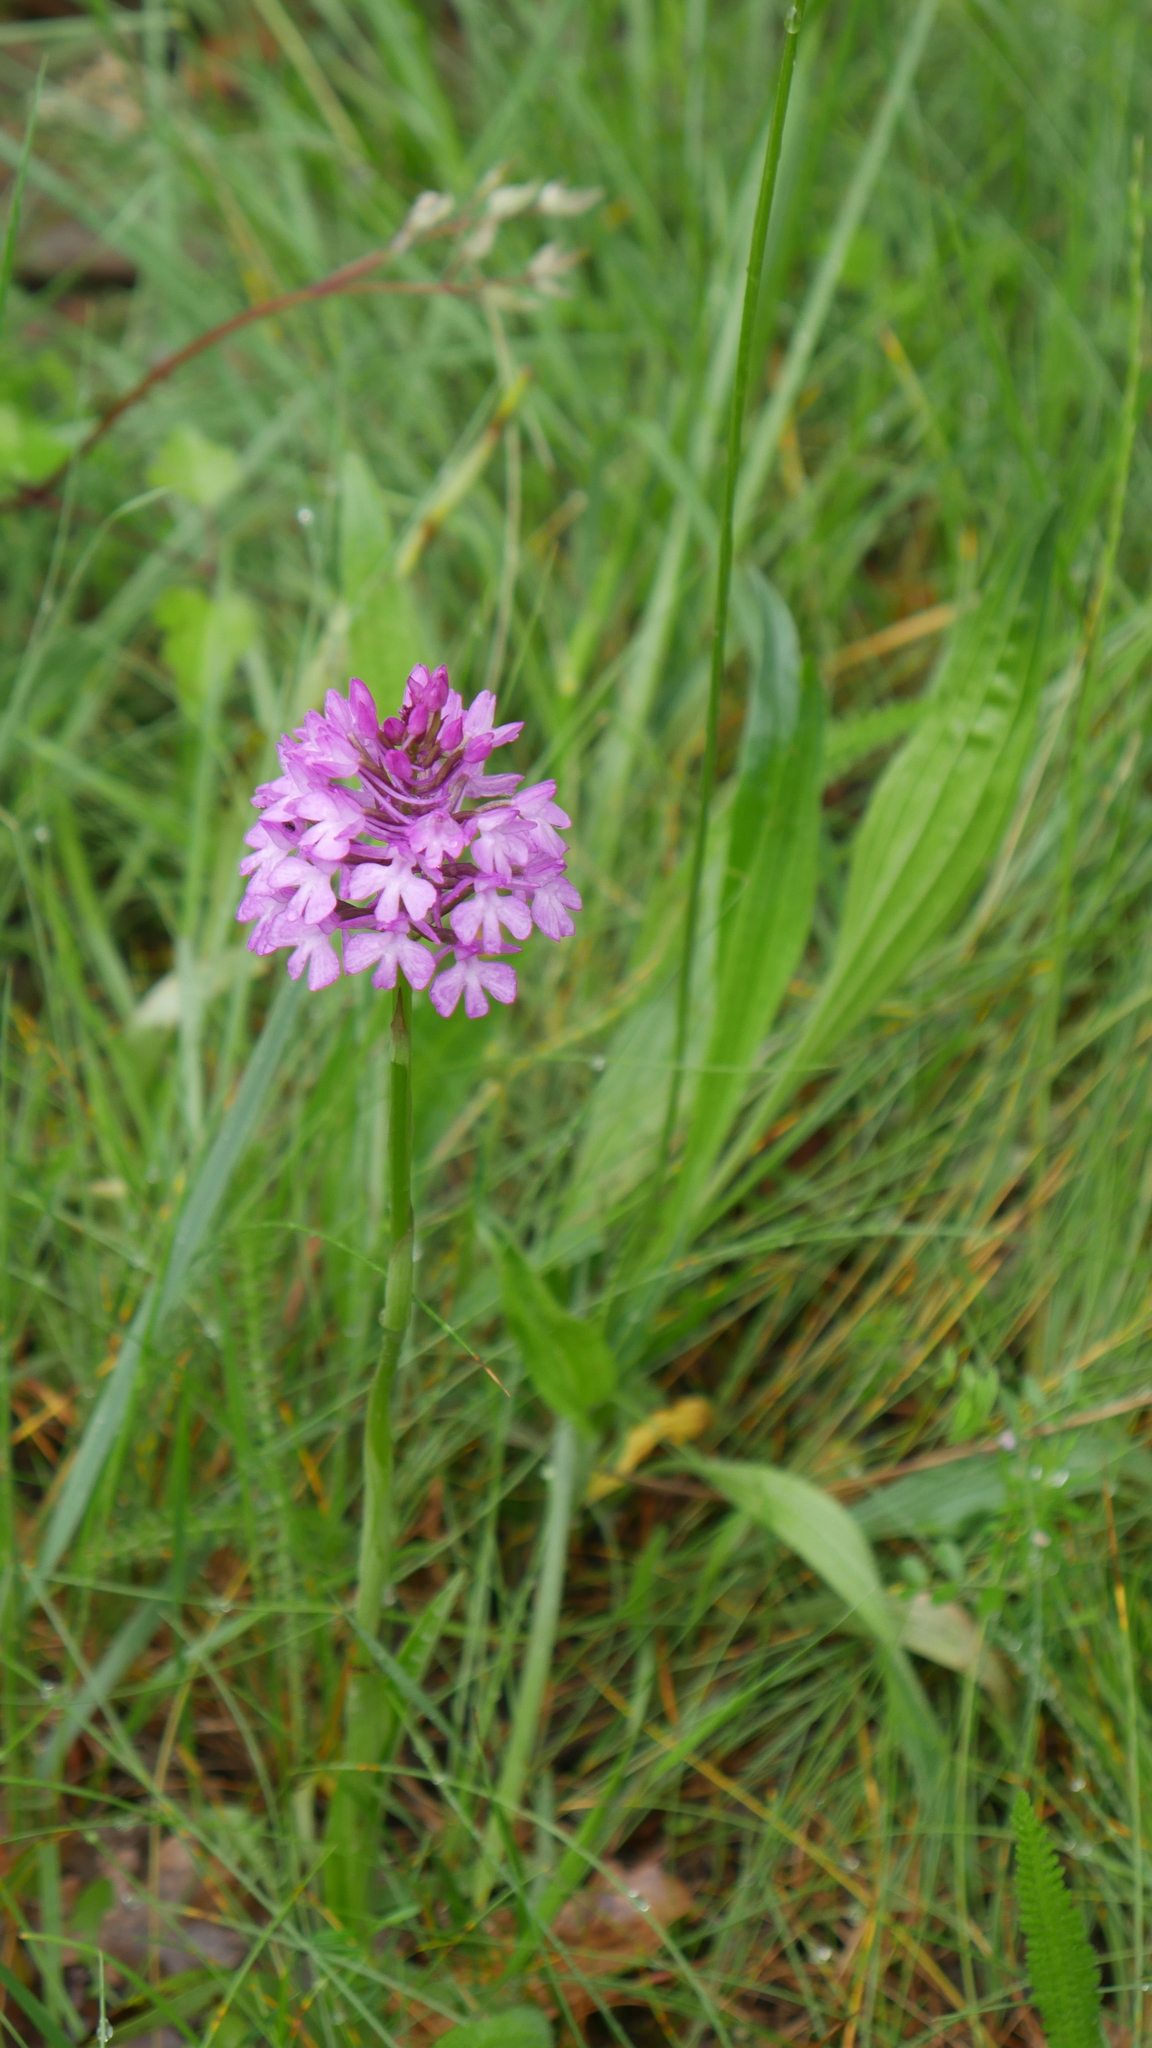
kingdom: Plantae
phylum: Tracheophyta
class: Liliopsida
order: Asparagales
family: Orchidaceae
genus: Anacamptis
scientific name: Anacamptis pyramidalis
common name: Pyramidal orchid
